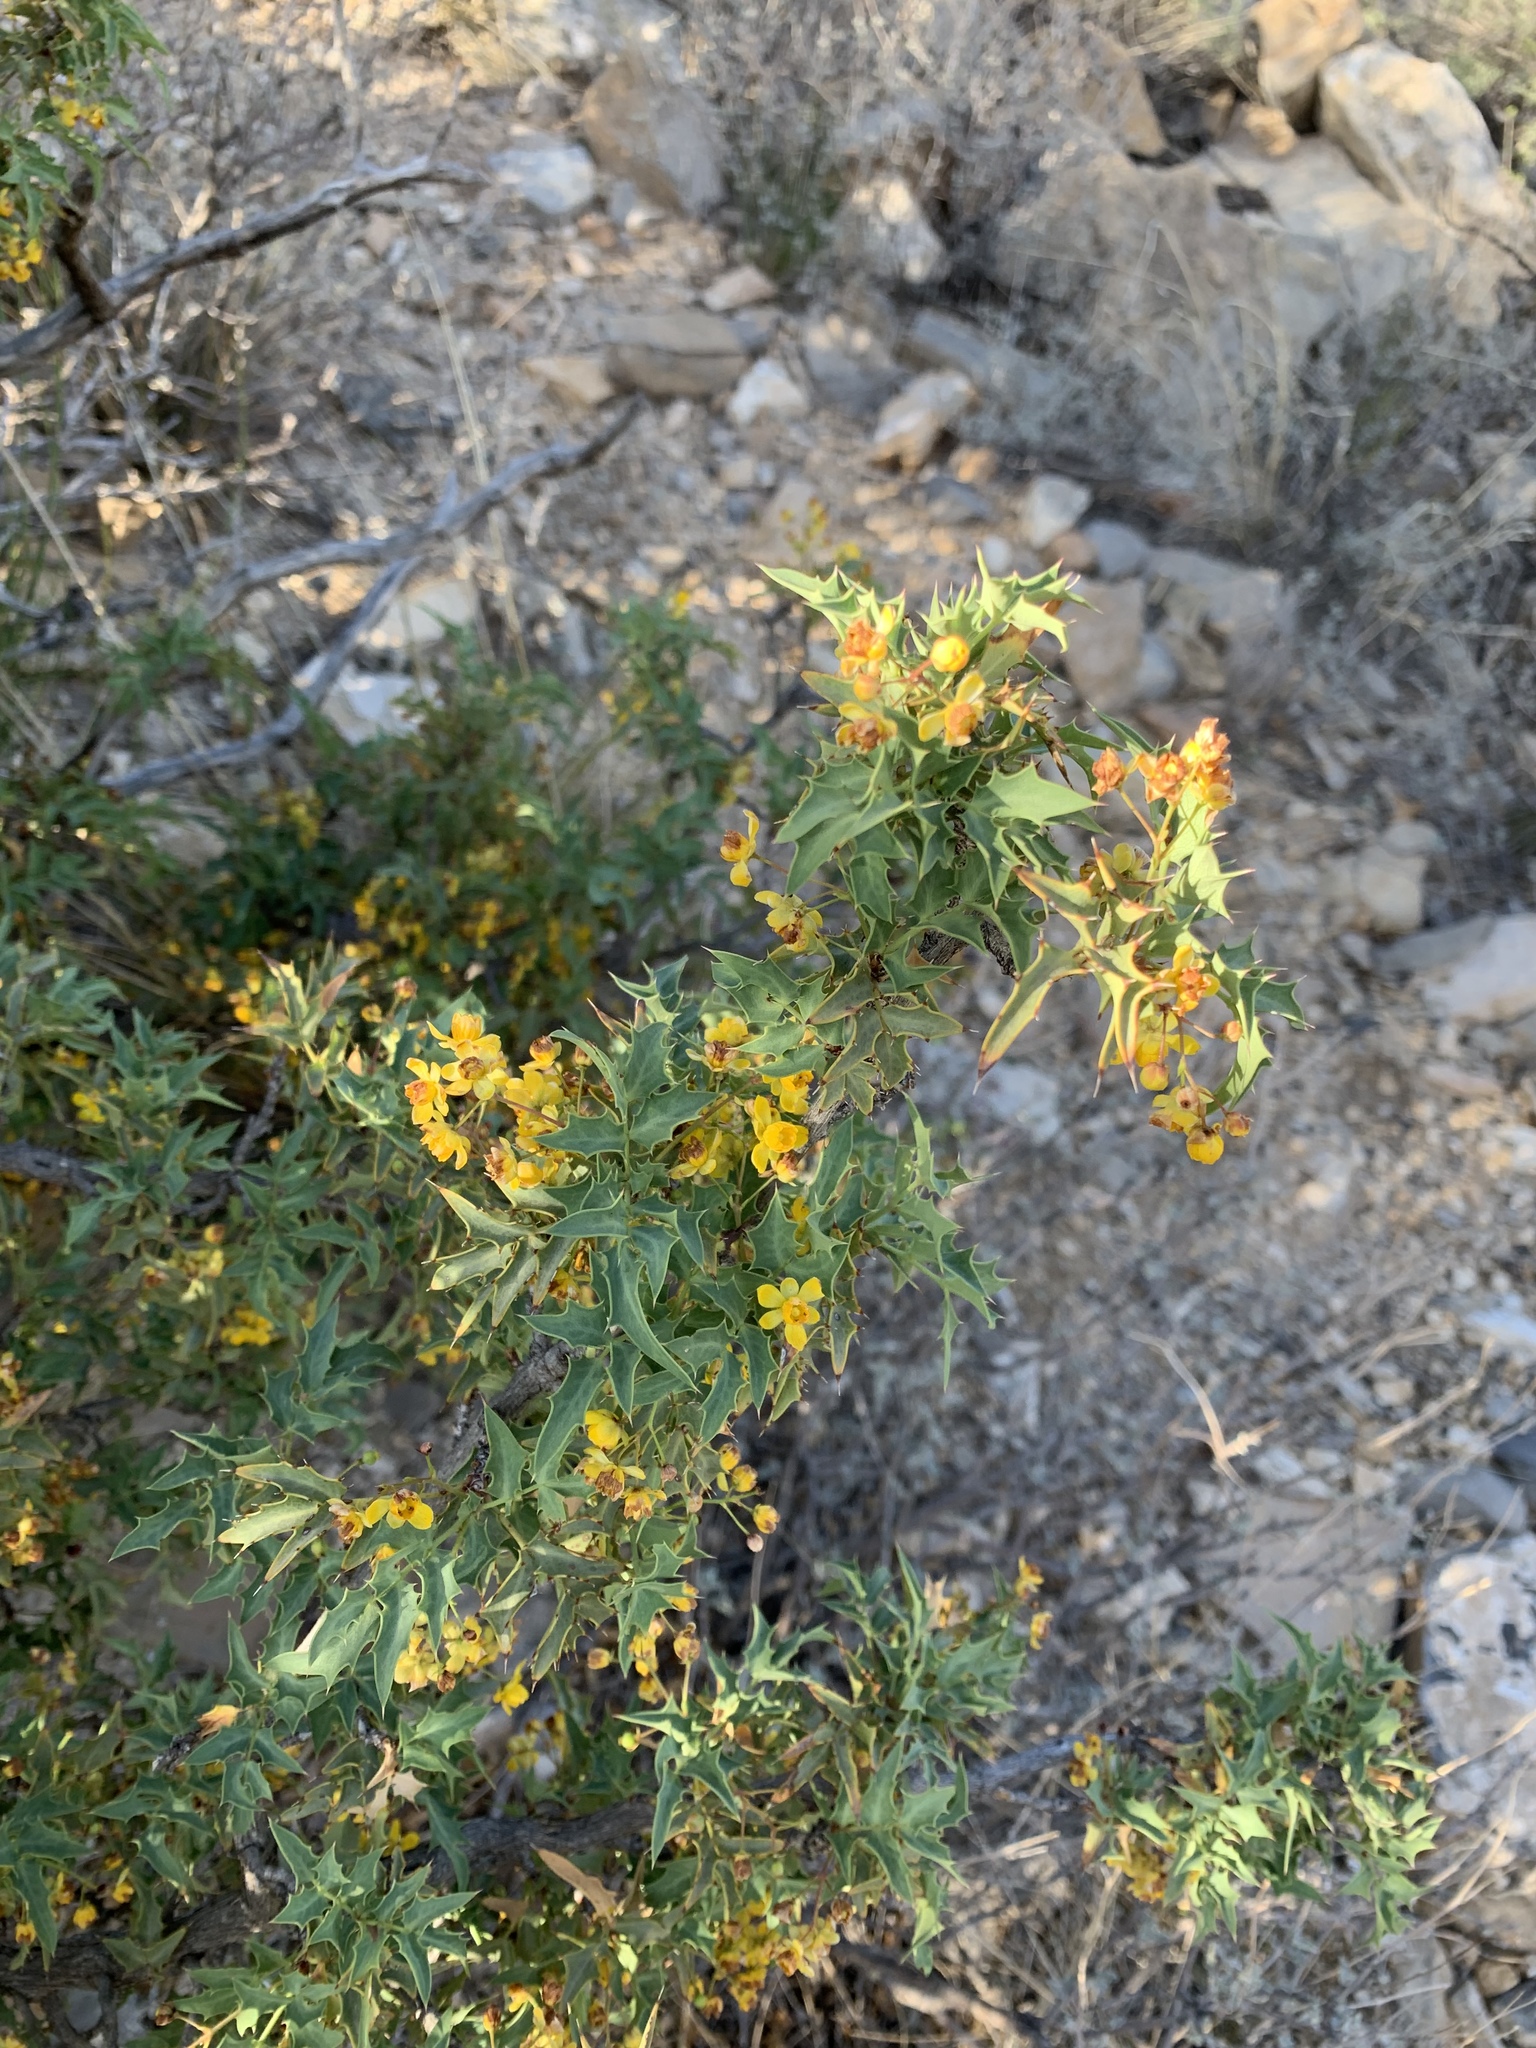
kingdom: Plantae
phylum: Tracheophyta
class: Magnoliopsida
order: Ranunculales
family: Berberidaceae
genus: Alloberberis
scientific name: Alloberberis haematocarpa
